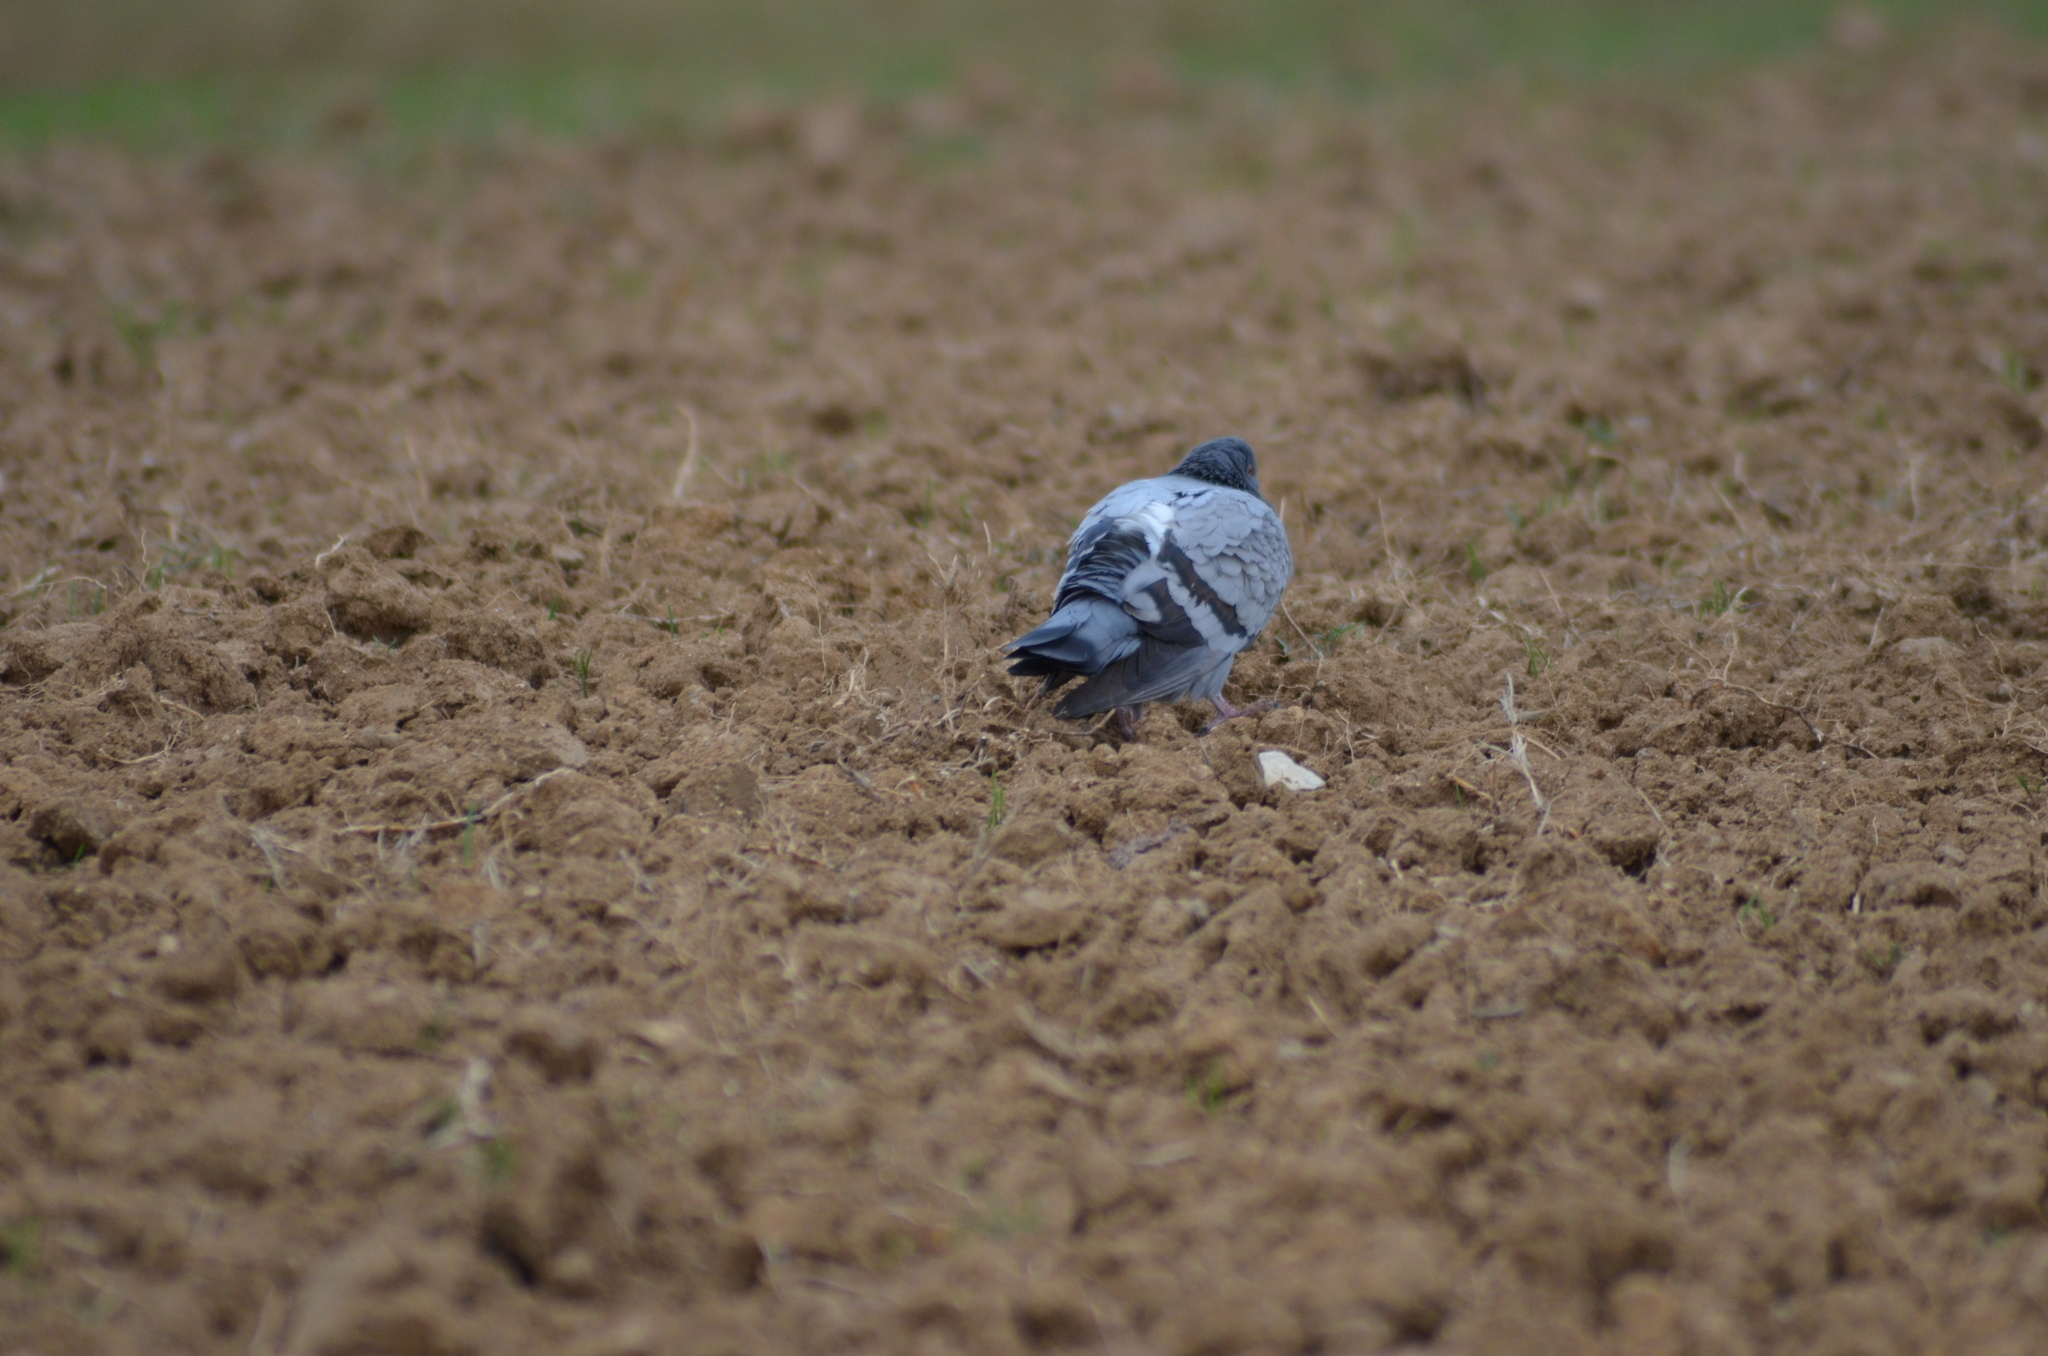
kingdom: Animalia
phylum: Chordata
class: Aves
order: Columbiformes
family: Columbidae
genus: Columba
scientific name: Columba livia
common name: Rock pigeon
